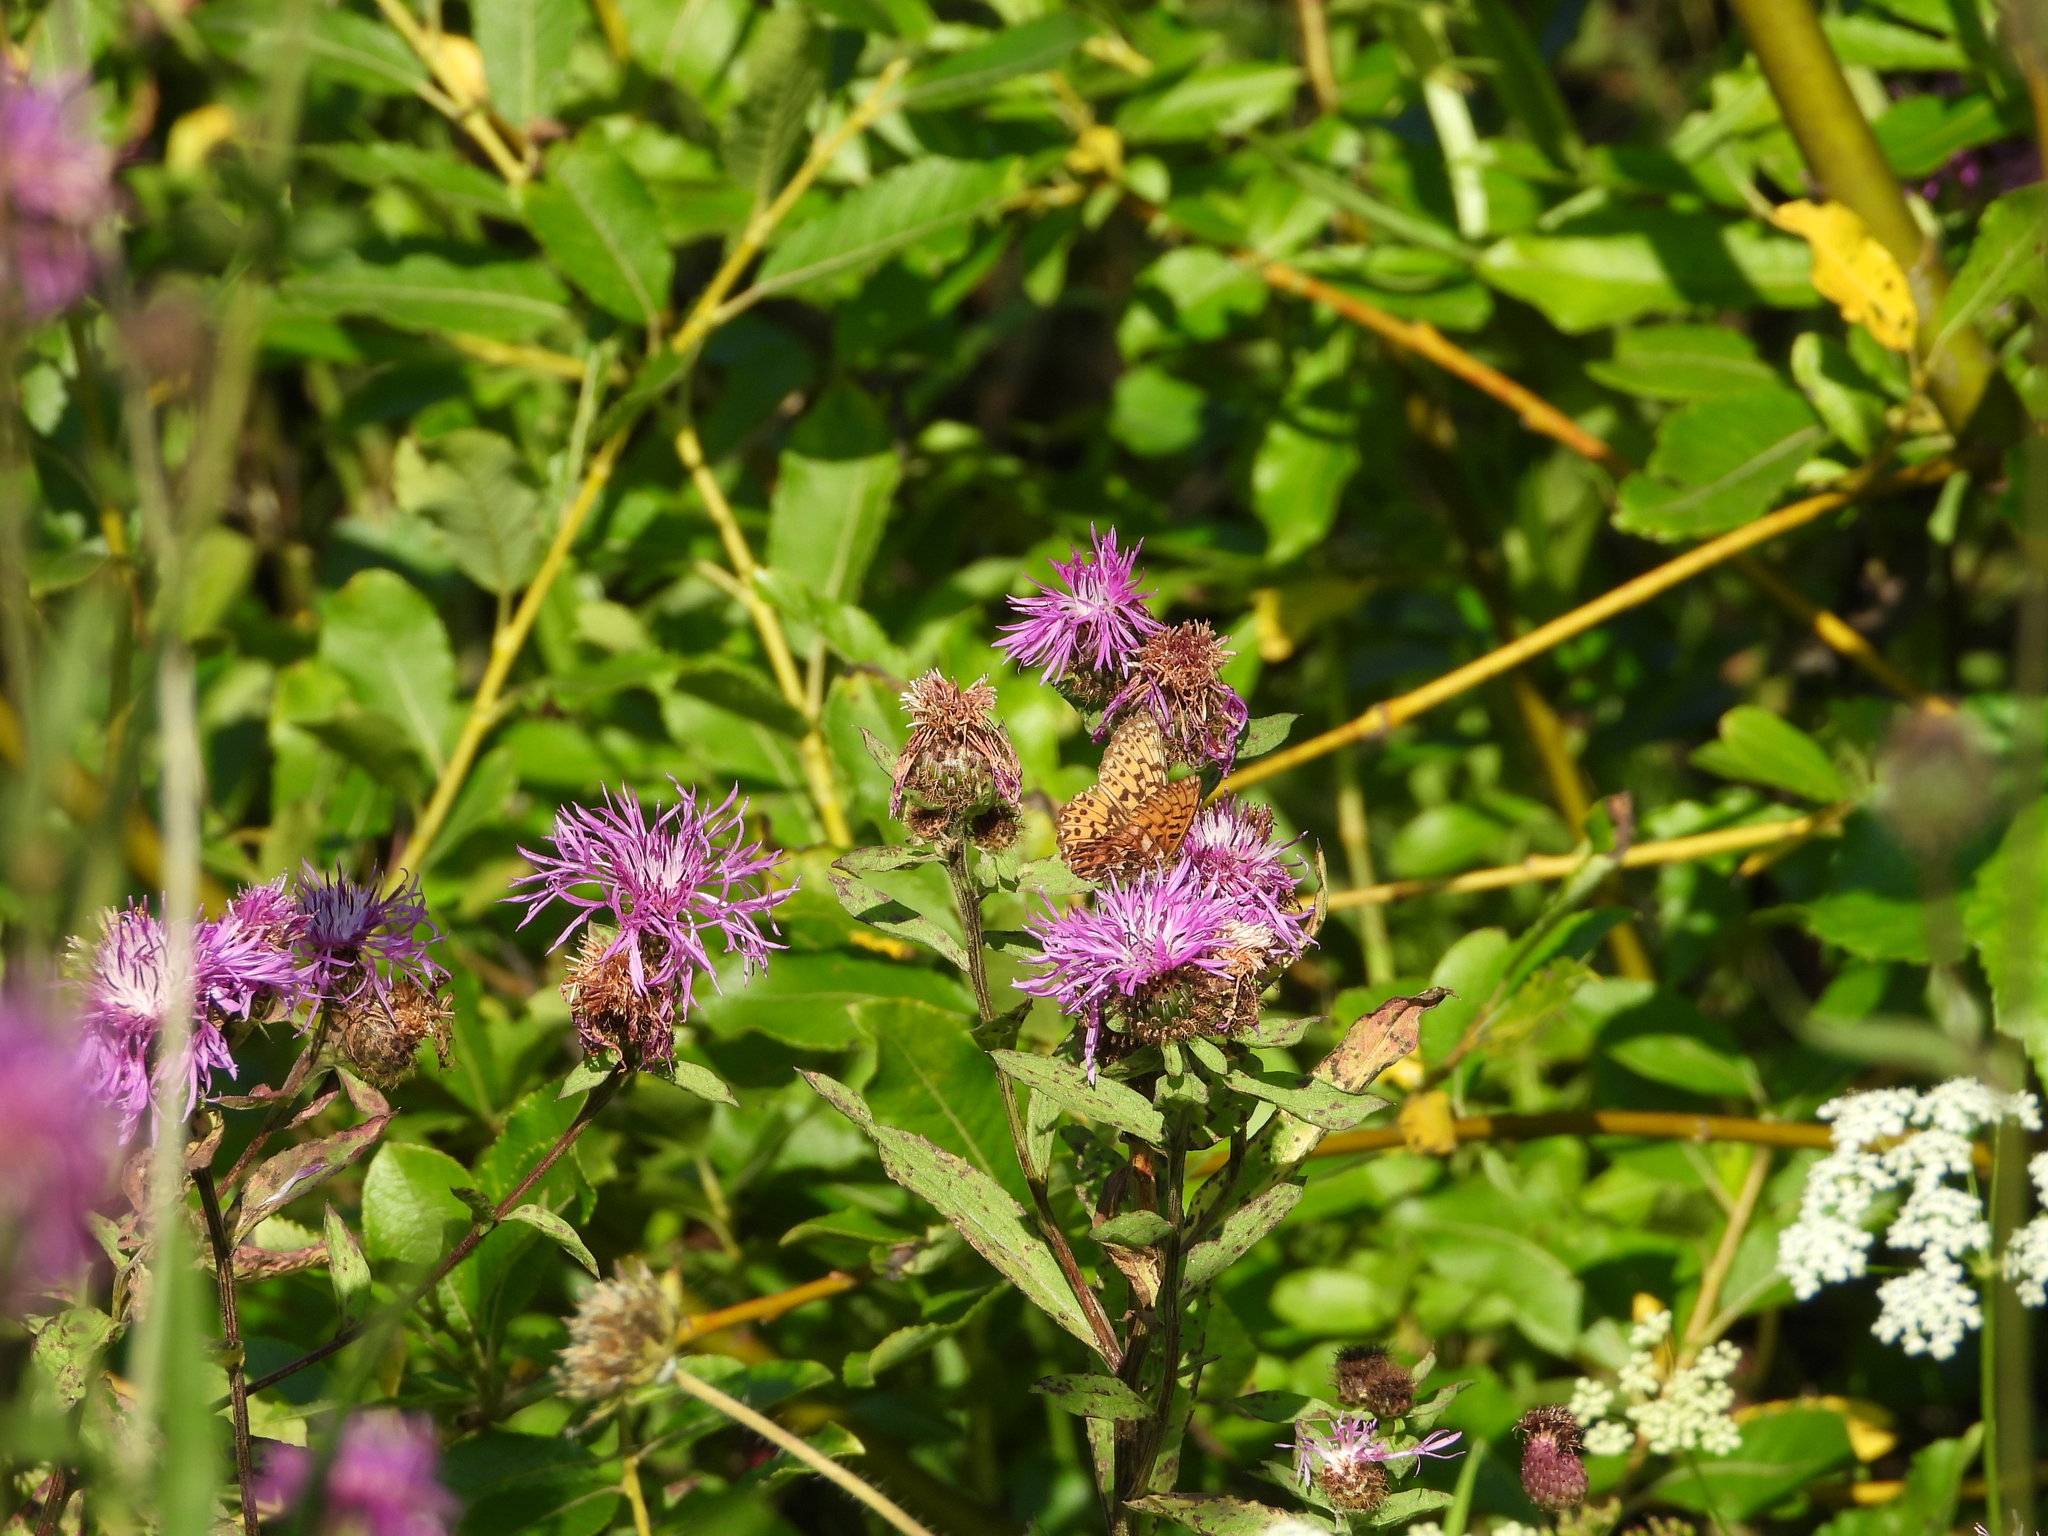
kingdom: Animalia
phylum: Arthropoda
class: Insecta
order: Lepidoptera
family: Nymphalidae
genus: Boloria
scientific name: Boloria titania
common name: Titania's fritillary
